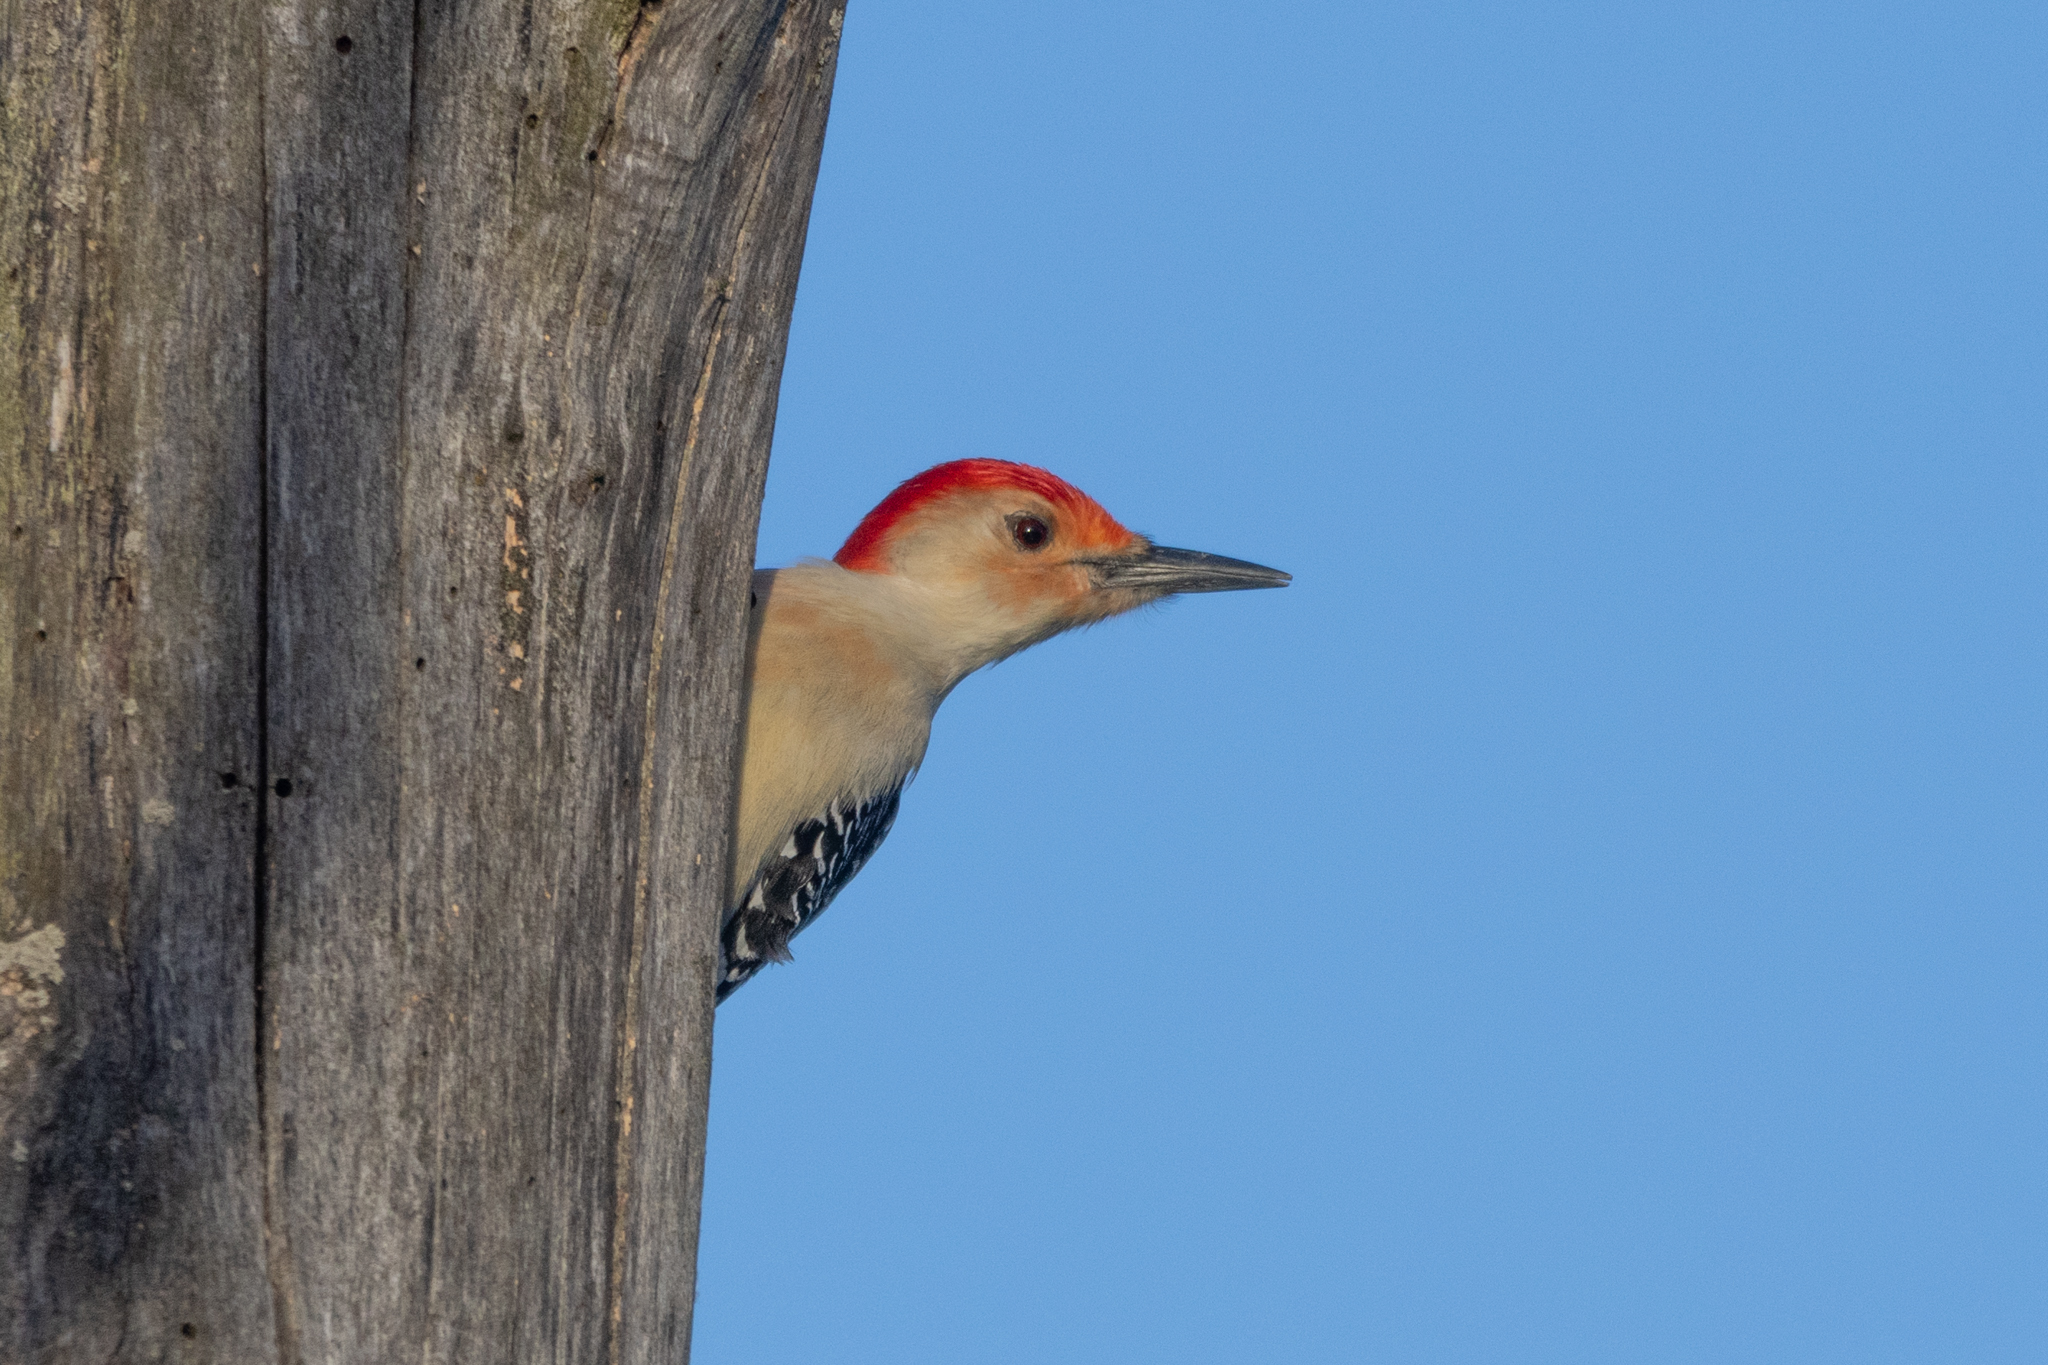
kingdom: Animalia
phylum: Chordata
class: Aves
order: Piciformes
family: Picidae
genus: Melanerpes
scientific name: Melanerpes carolinus
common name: Red-bellied woodpecker
